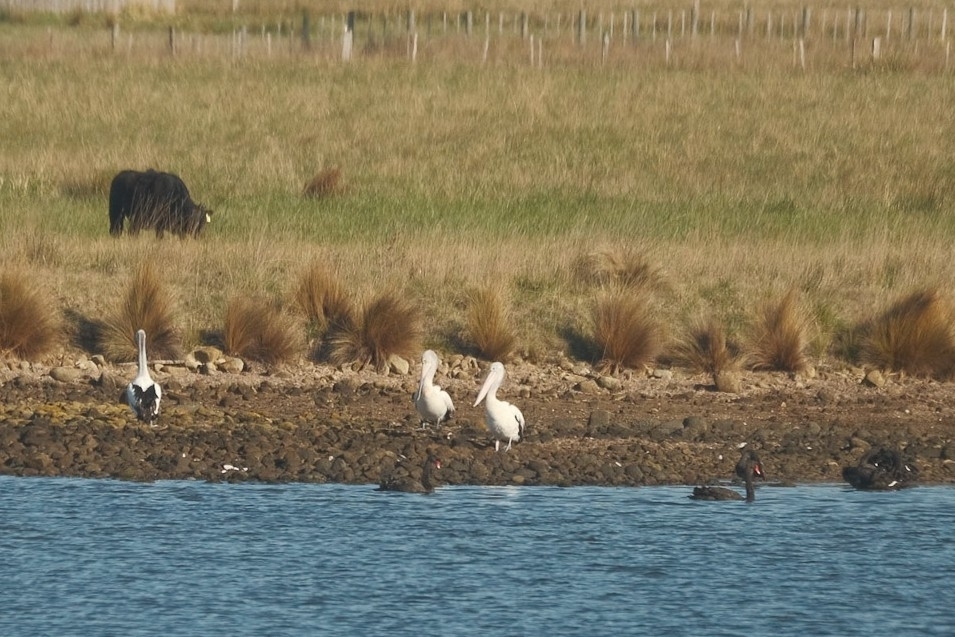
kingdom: Animalia
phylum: Chordata
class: Aves
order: Pelecaniformes
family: Pelecanidae
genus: Pelecanus
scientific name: Pelecanus conspicillatus
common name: Australian pelican
